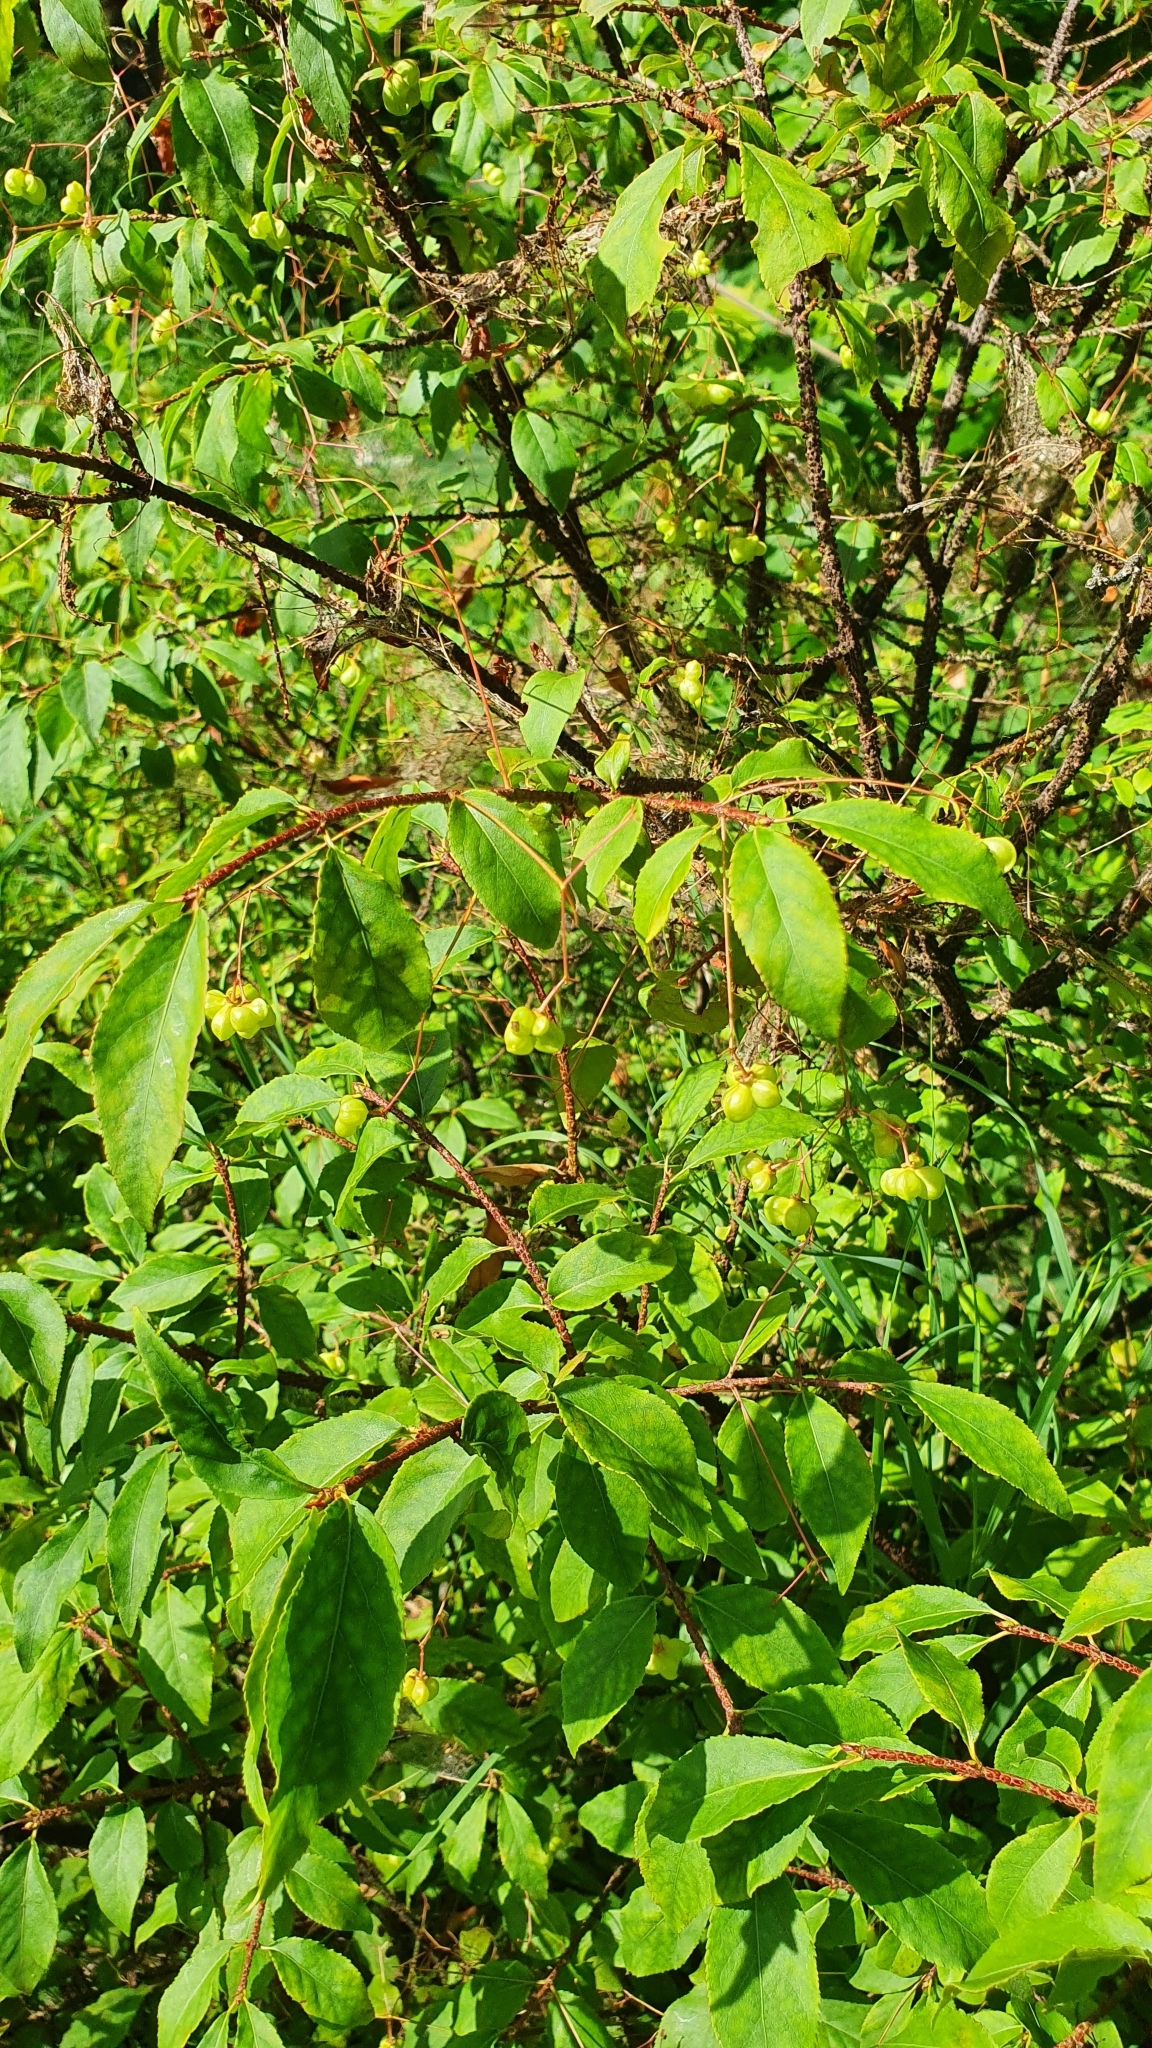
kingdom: Plantae
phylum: Tracheophyta
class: Magnoliopsida
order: Celastrales
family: Celastraceae
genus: Euonymus
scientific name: Euonymus verrucosus
